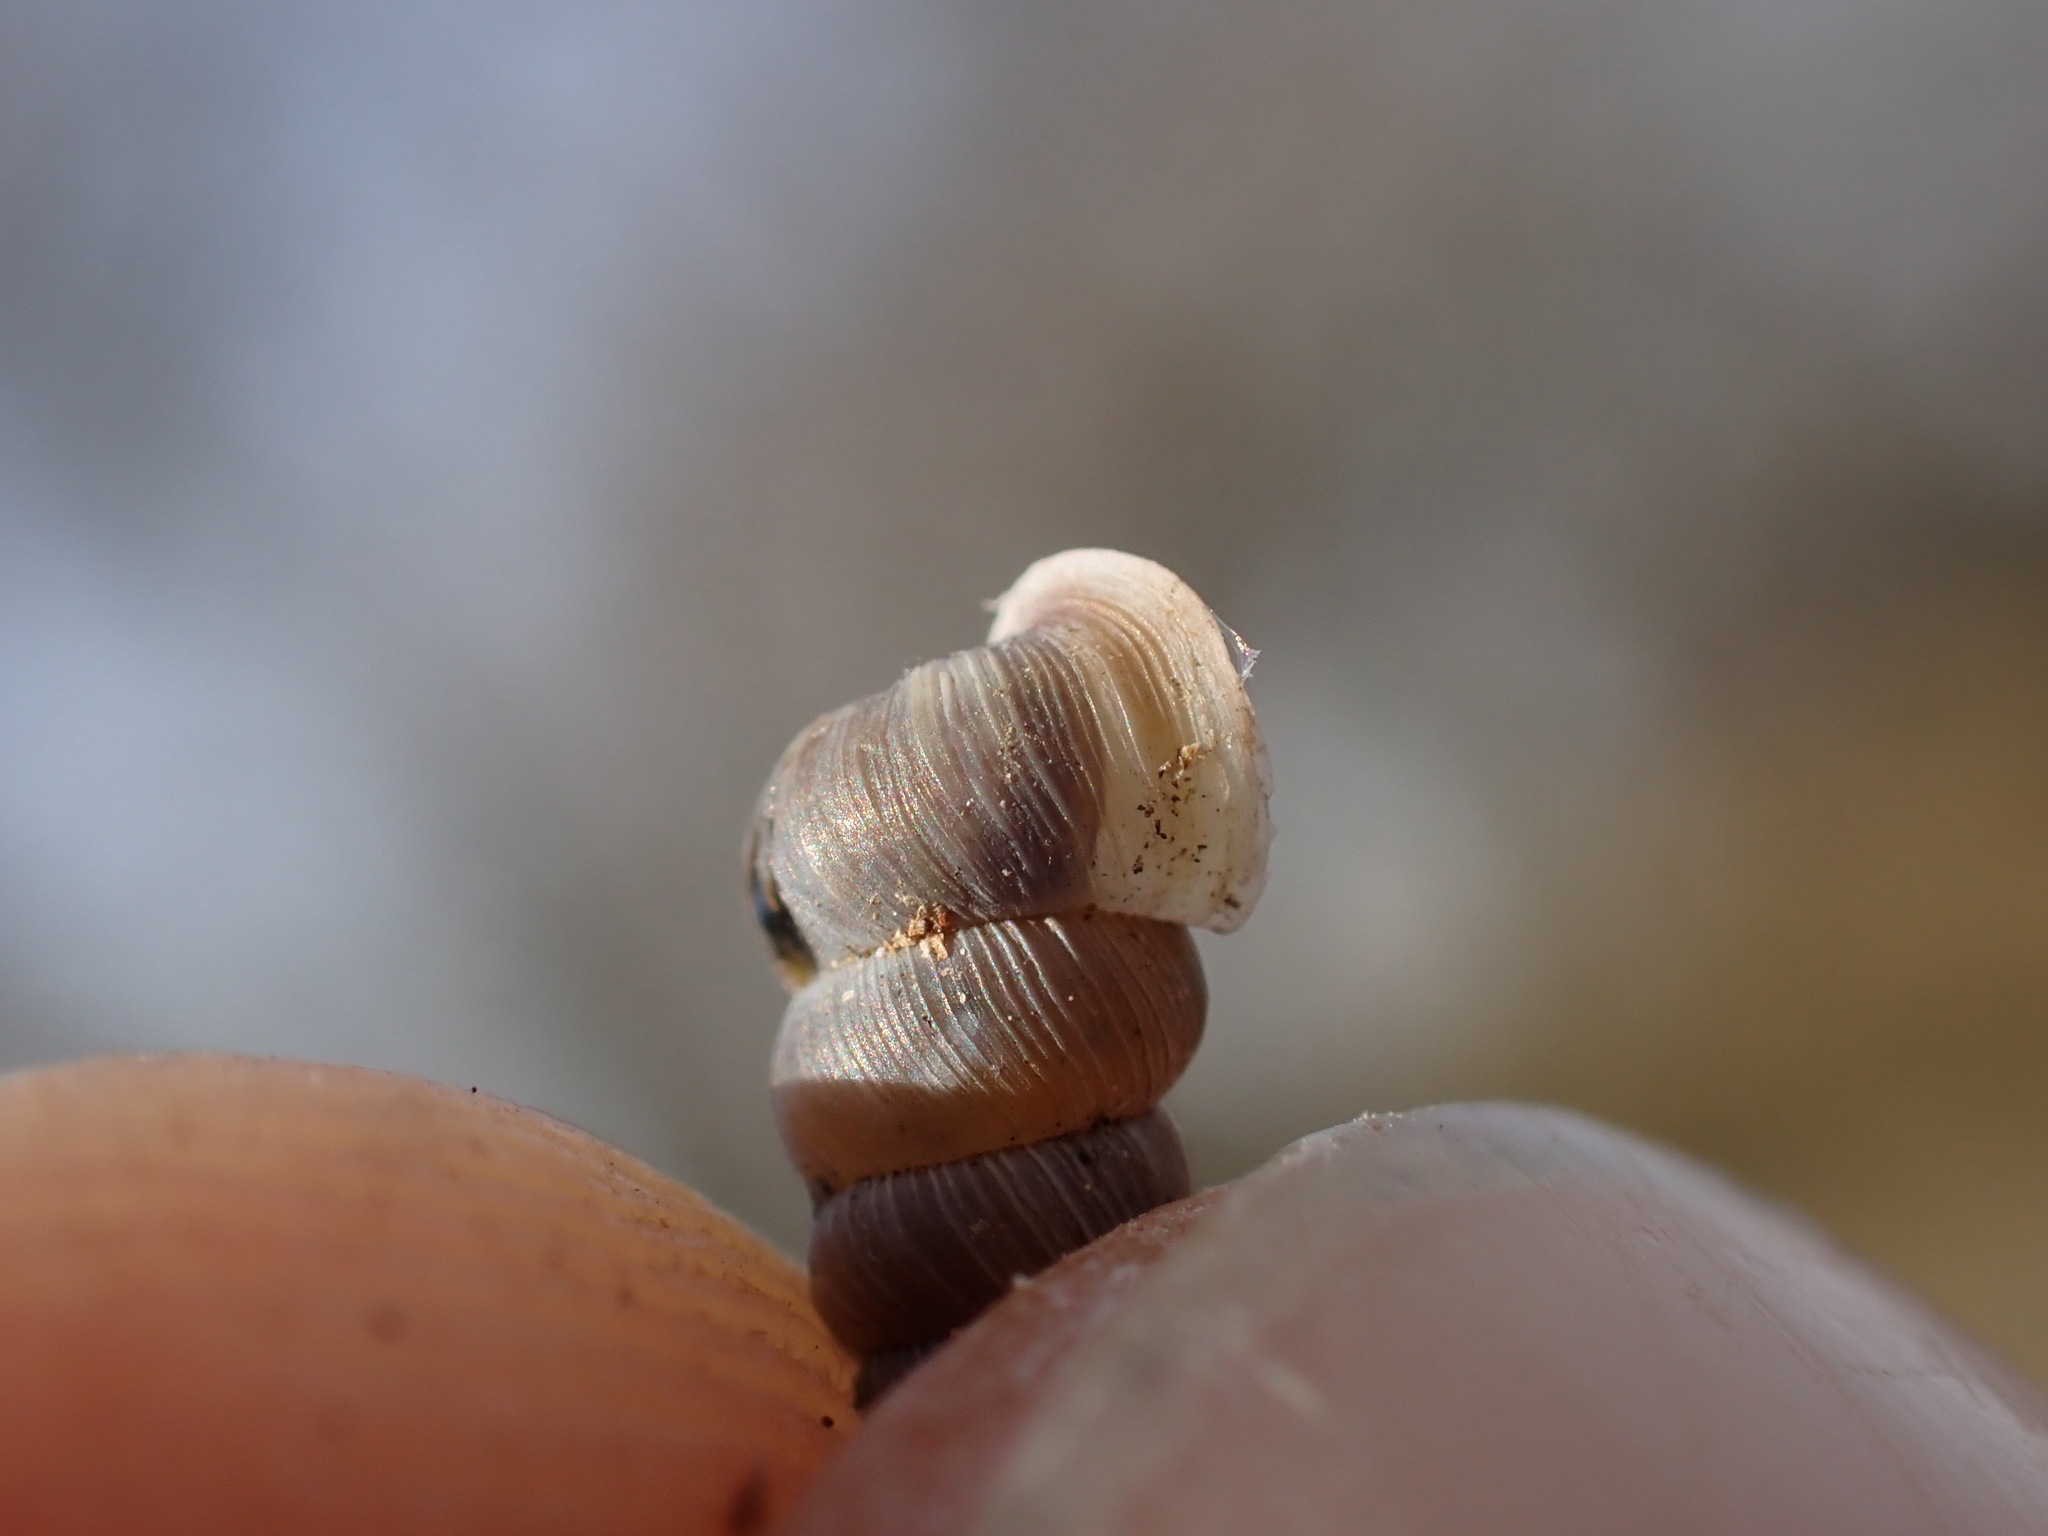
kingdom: Animalia
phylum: Mollusca
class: Gastropoda
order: Architaenioglossa
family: Cochlostomatidae
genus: Cochlostoma
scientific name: Cochlostoma patulum
